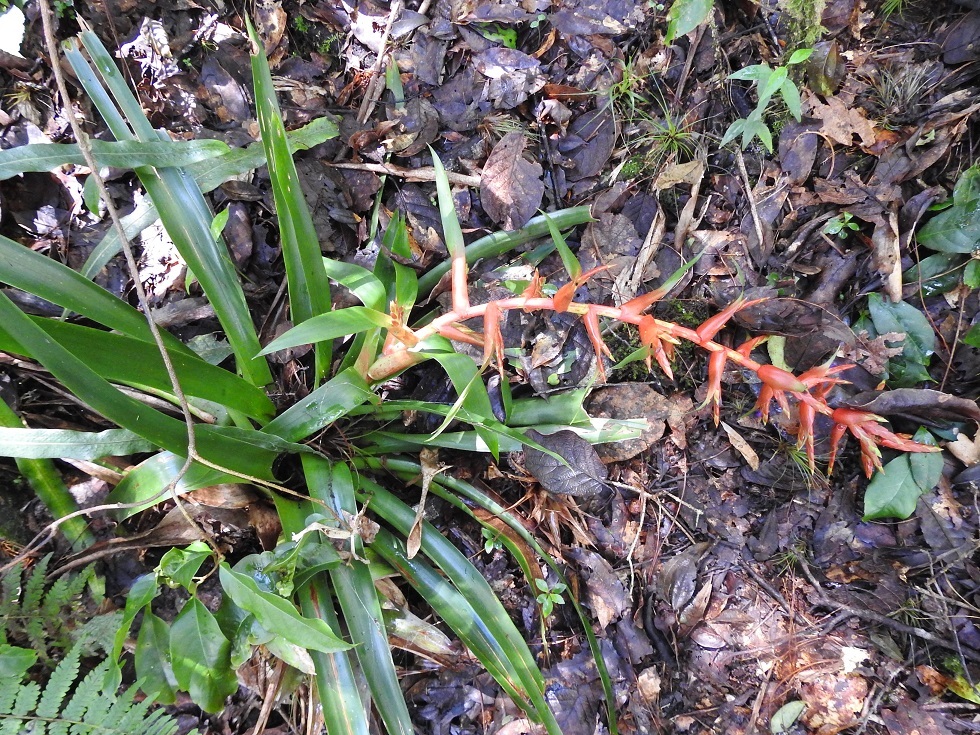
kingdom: Plantae
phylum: Tracheophyta
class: Liliopsida
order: Poales
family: Bromeliaceae
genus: Tillandsia
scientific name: Tillandsia guatemalensis
